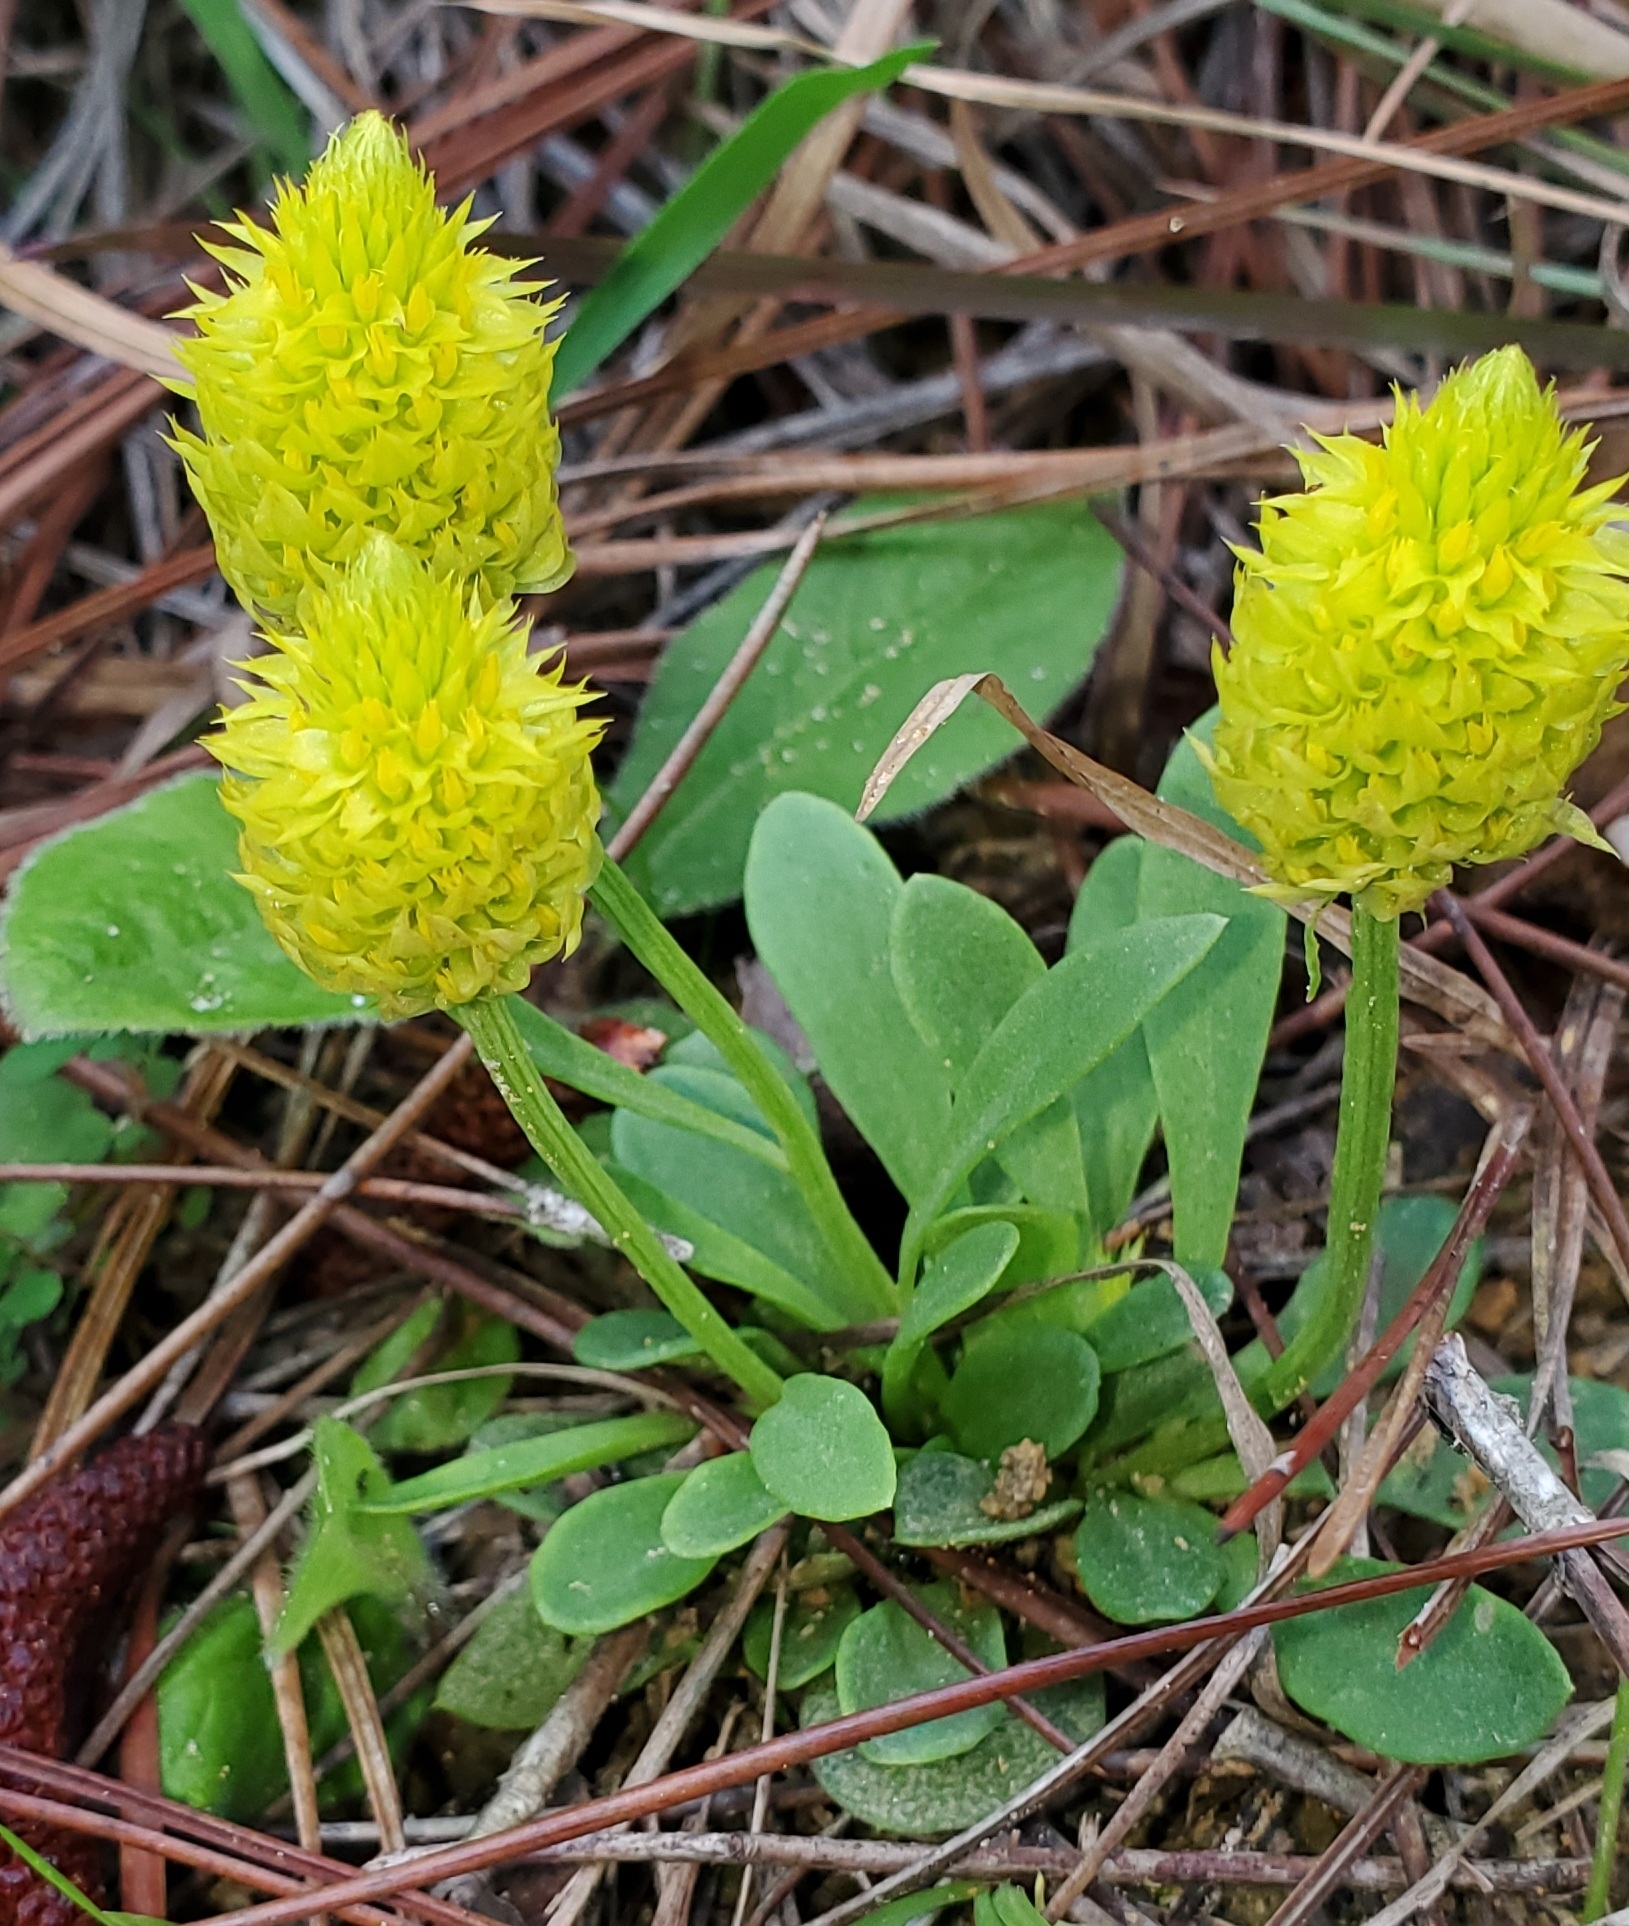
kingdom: Plantae
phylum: Tracheophyta
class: Magnoliopsida
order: Fabales
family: Polygalaceae
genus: Polygala
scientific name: Polygala nana
